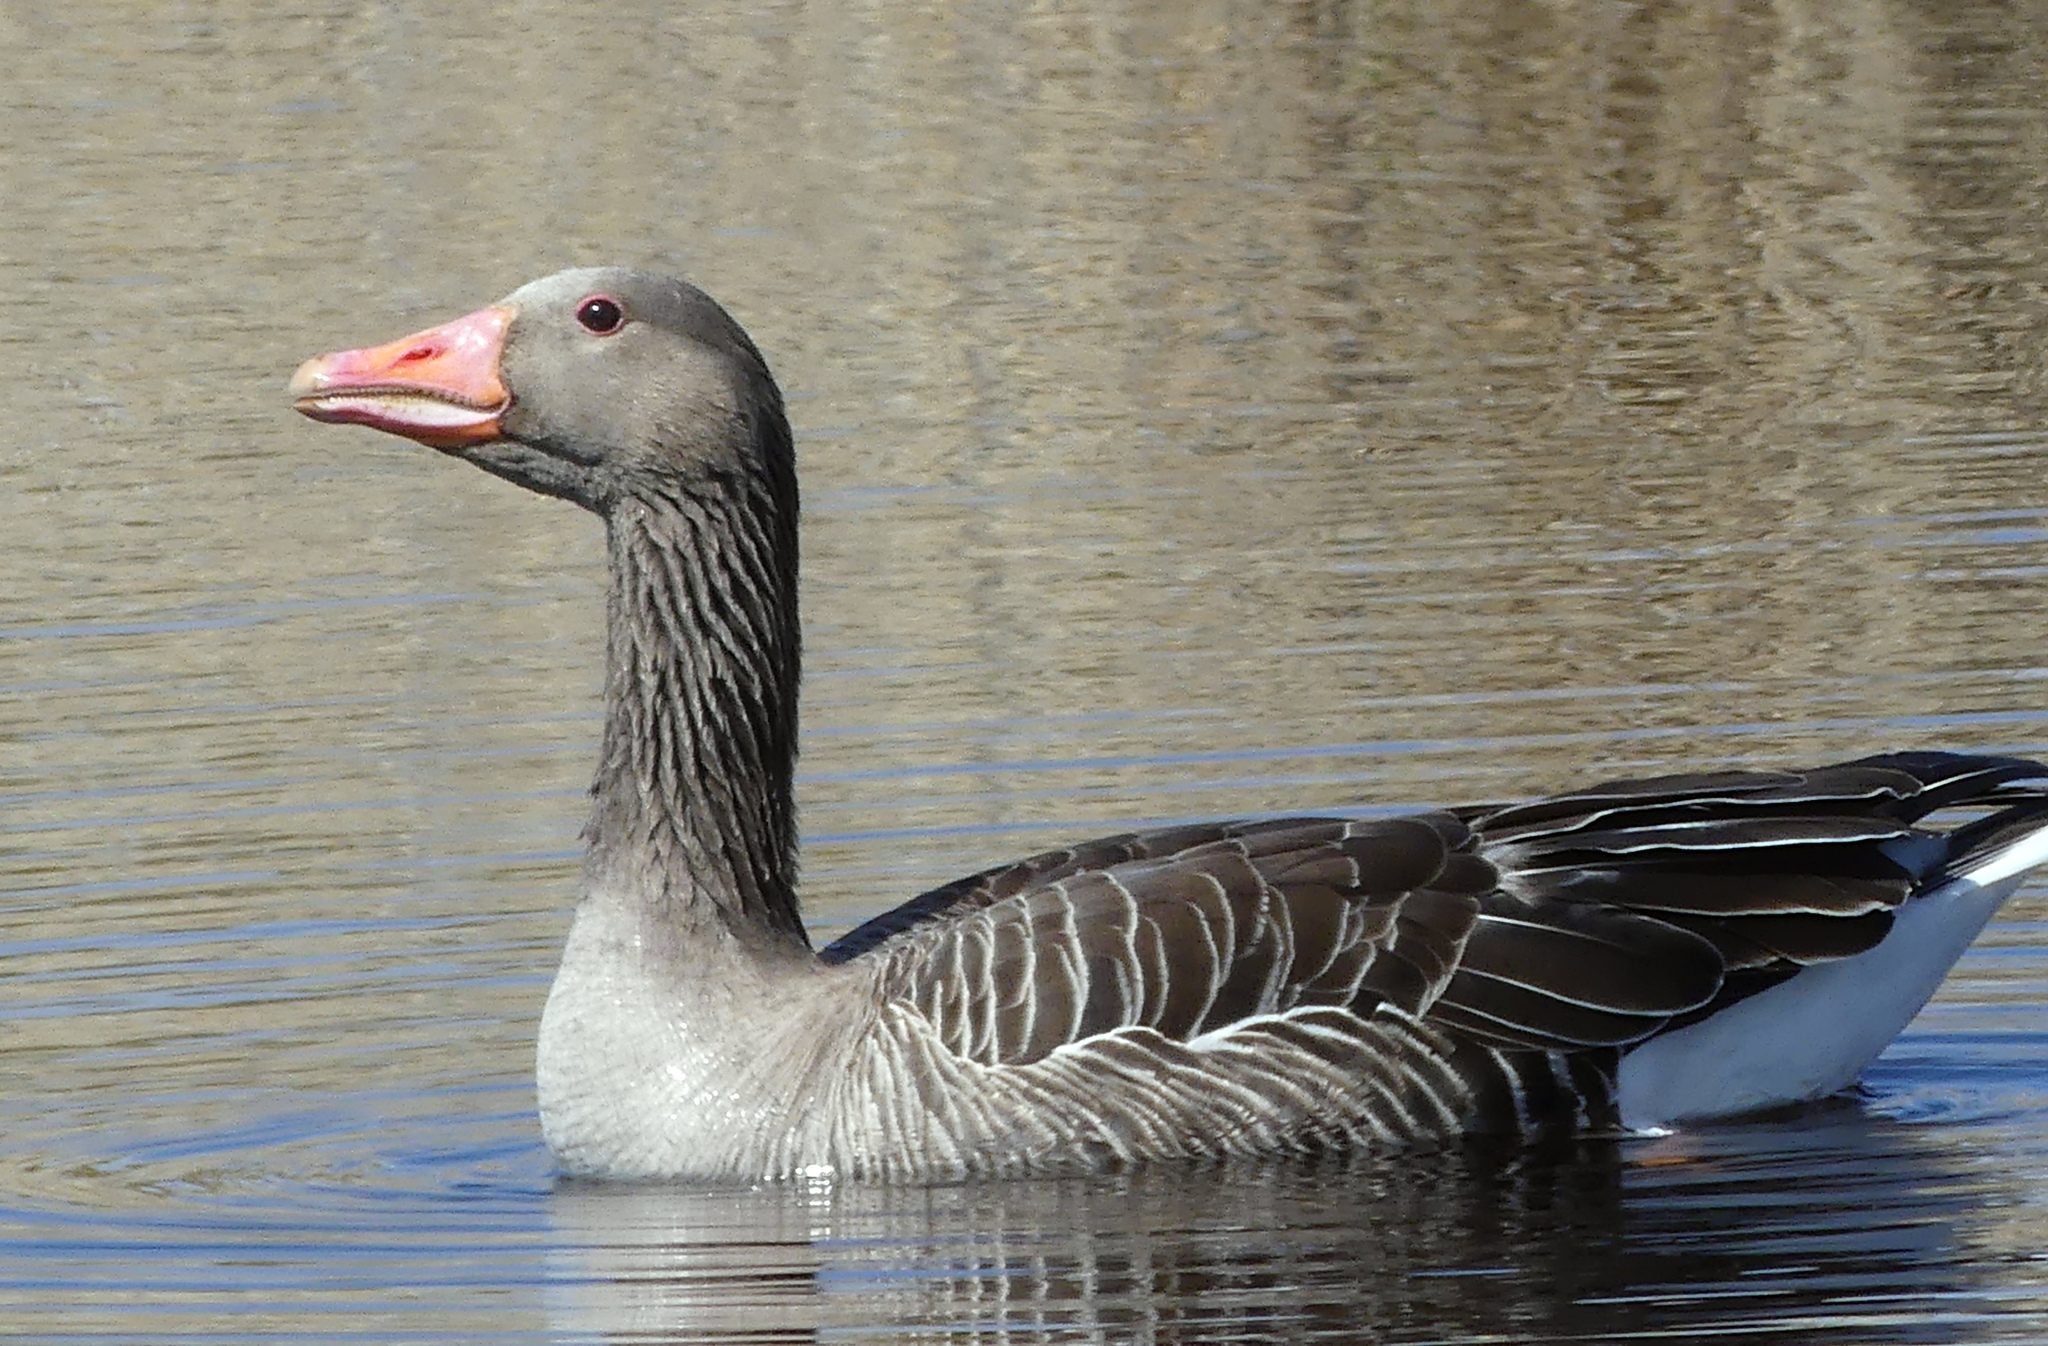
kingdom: Animalia
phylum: Chordata
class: Aves
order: Anseriformes
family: Anatidae
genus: Anser
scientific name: Anser anser
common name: Greylag goose
